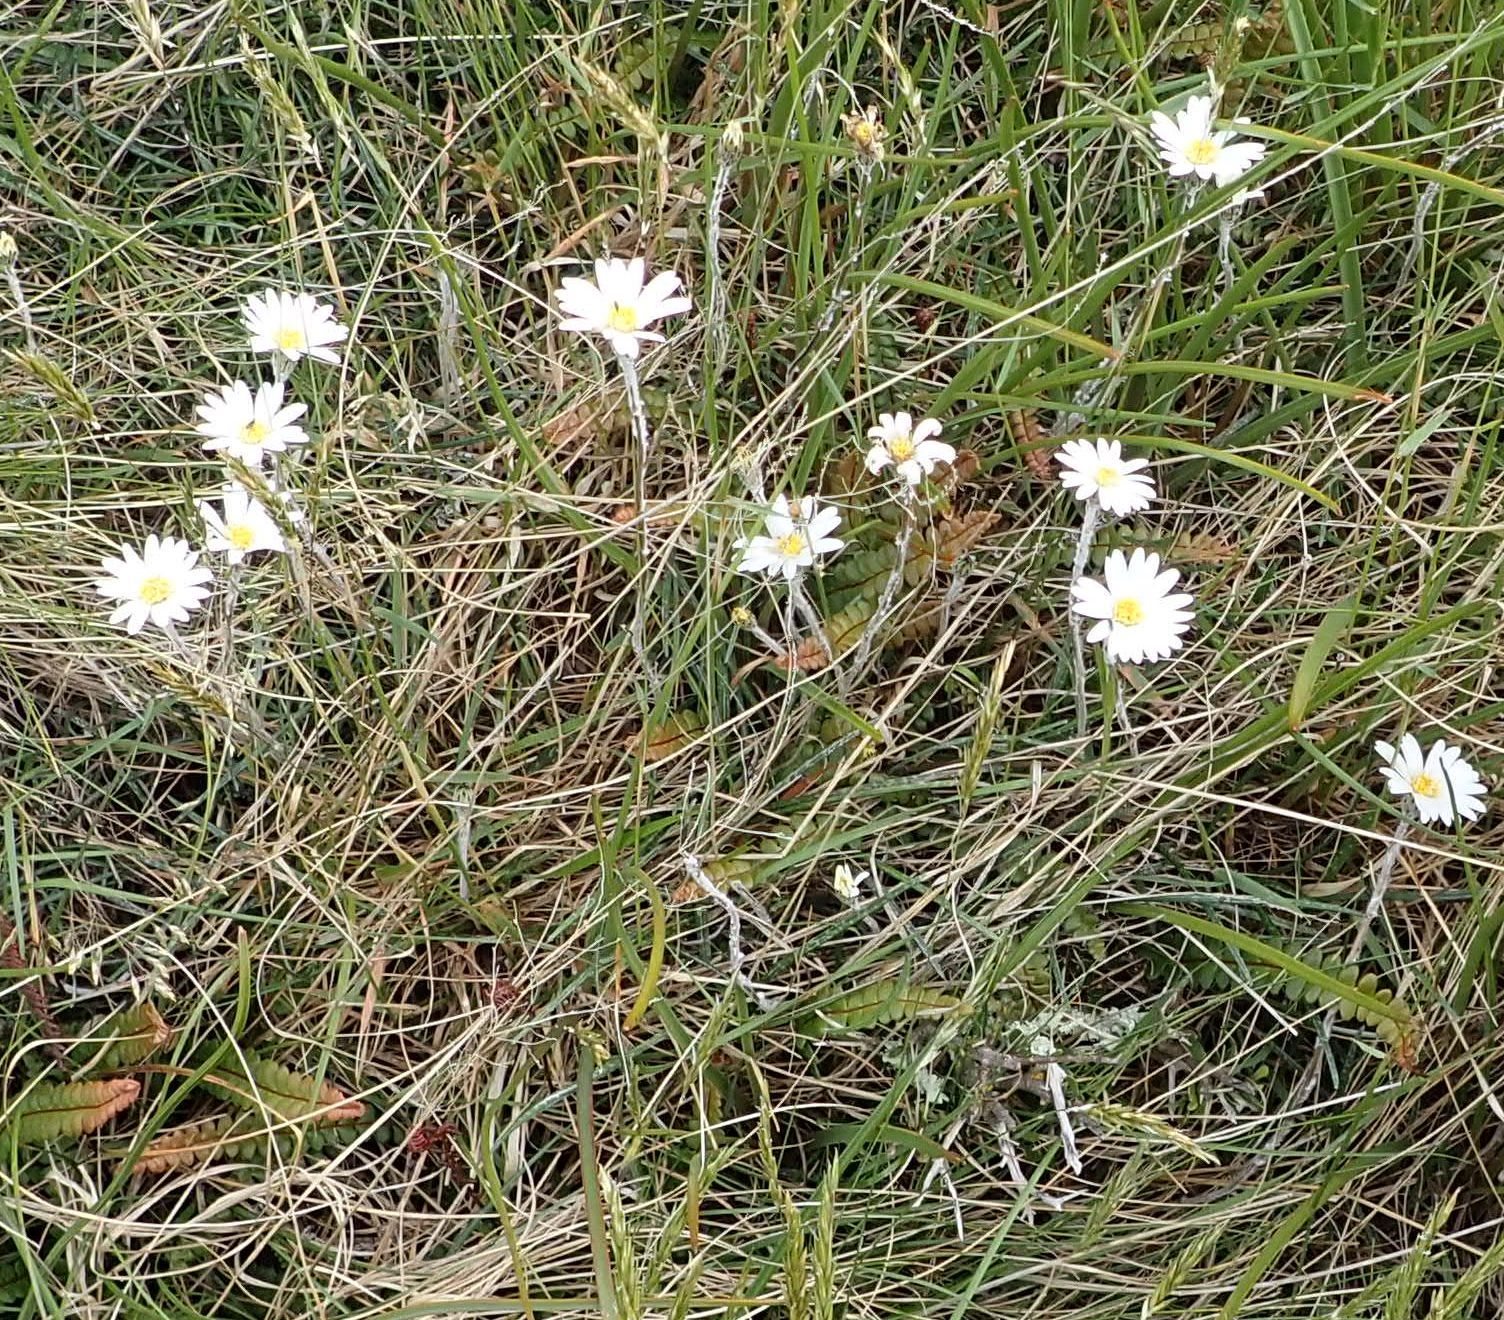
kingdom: Plantae
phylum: Tracheophyta
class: Magnoliopsida
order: Asterales
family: Asteraceae
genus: Celmisia
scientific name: Celmisia gracilenta
